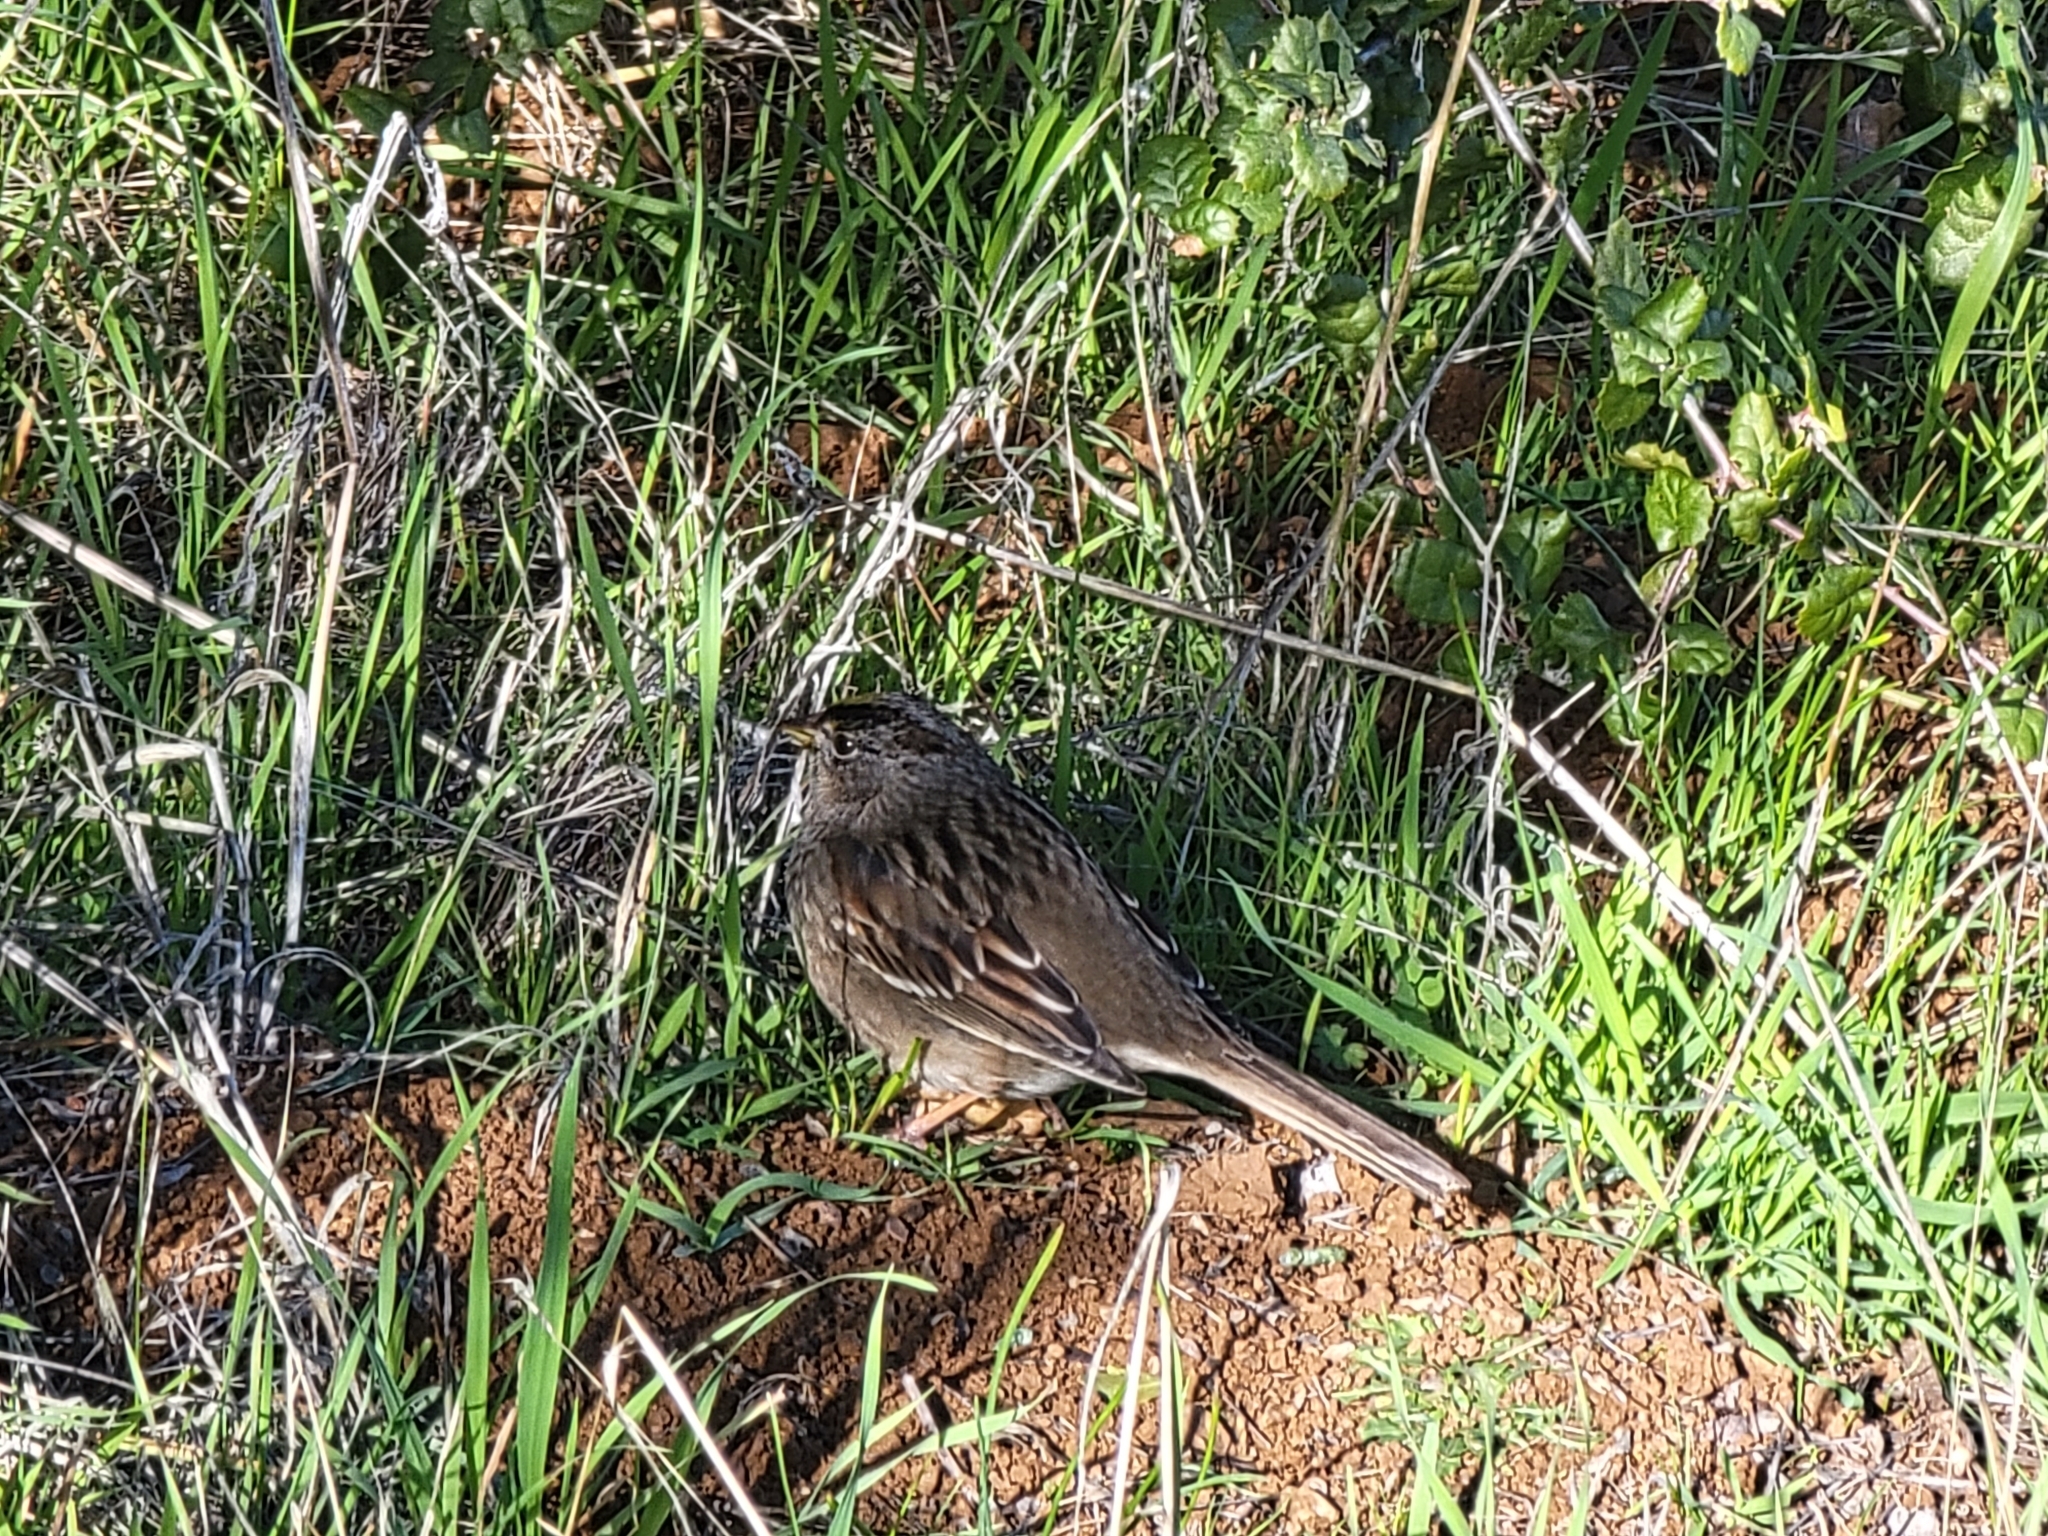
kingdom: Animalia
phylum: Chordata
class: Aves
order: Passeriformes
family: Passerellidae
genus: Zonotrichia
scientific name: Zonotrichia atricapilla
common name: Golden-crowned sparrow
